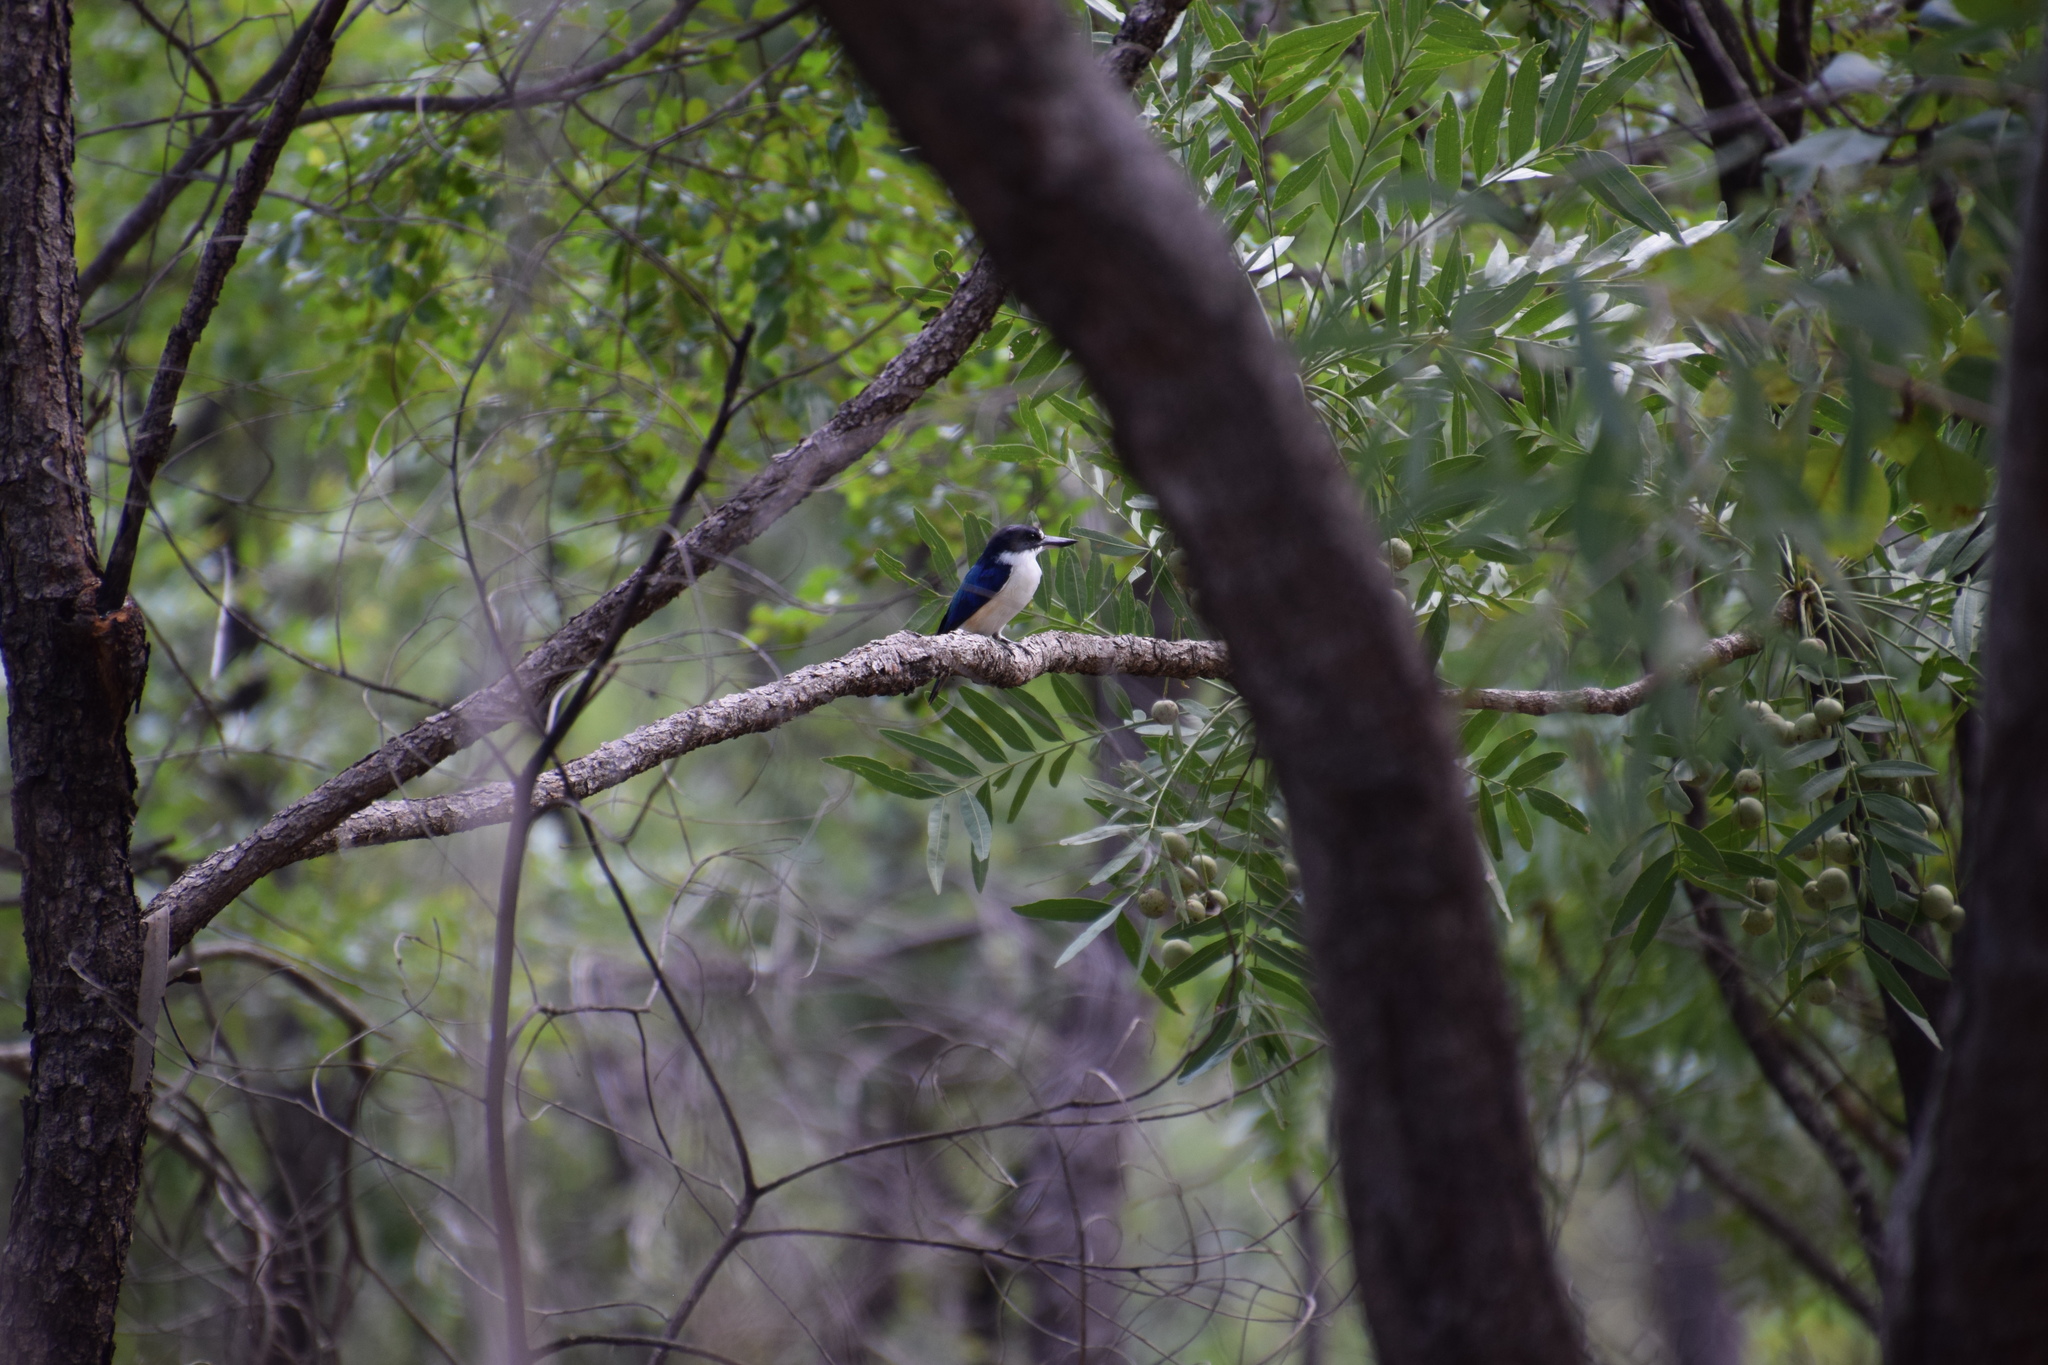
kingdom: Animalia
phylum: Chordata
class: Aves
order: Coraciiformes
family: Alcedinidae
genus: Todiramphus
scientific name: Todiramphus macleayii
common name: Forest kingfisher
